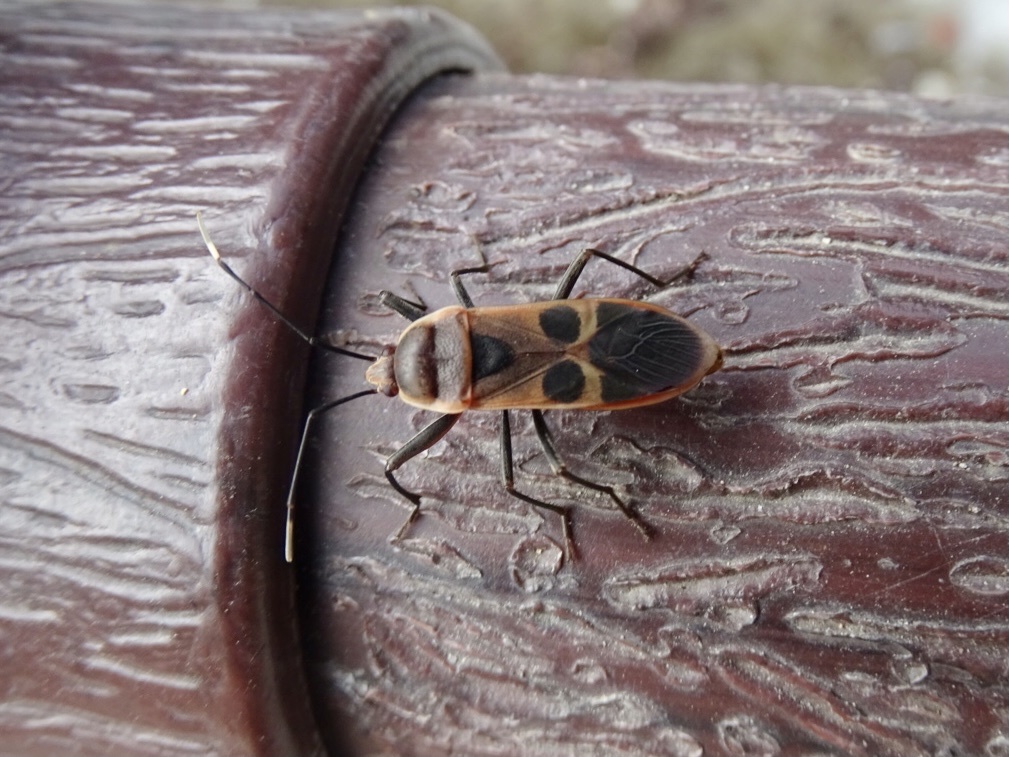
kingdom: Animalia
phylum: Arthropoda
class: Insecta
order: Hemiptera
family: Largidae
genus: Physopelta
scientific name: Physopelta gutta
